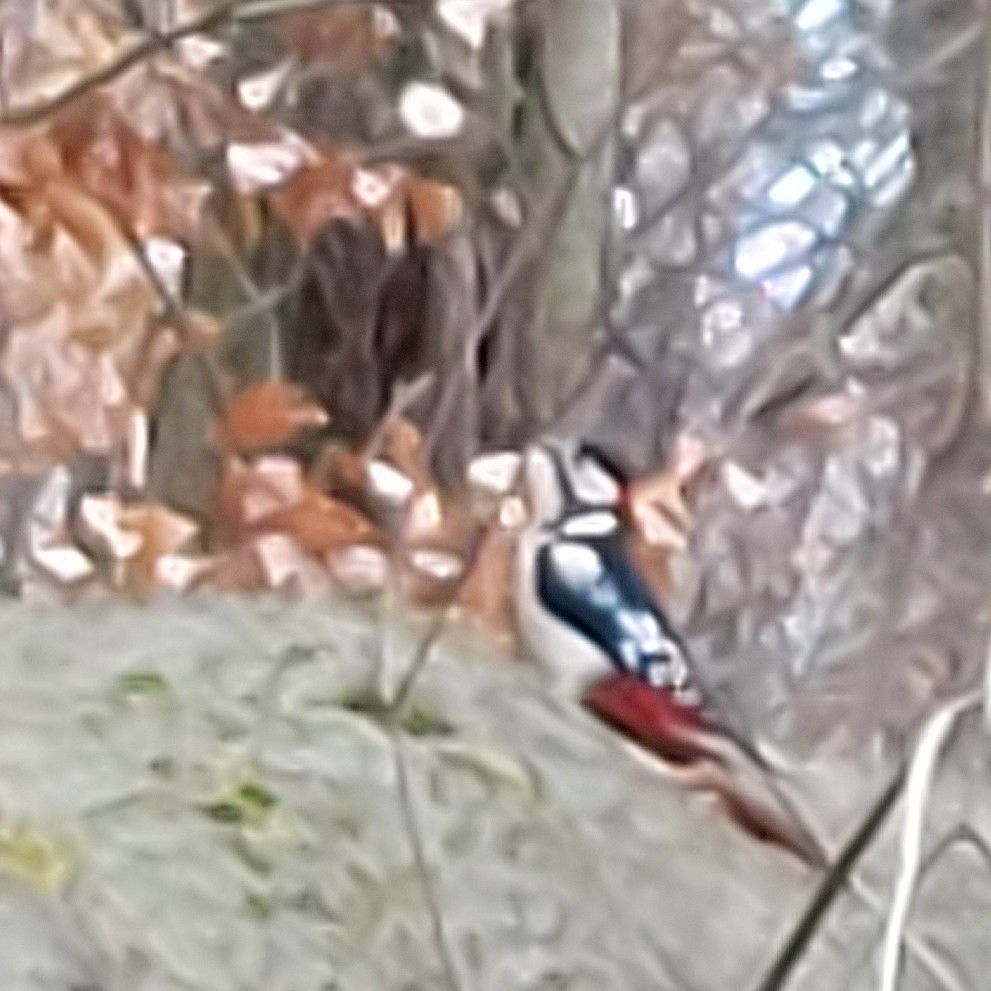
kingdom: Animalia
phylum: Chordata
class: Aves
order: Piciformes
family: Picidae
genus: Dendrocopos
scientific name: Dendrocopos major
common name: Great spotted woodpecker
